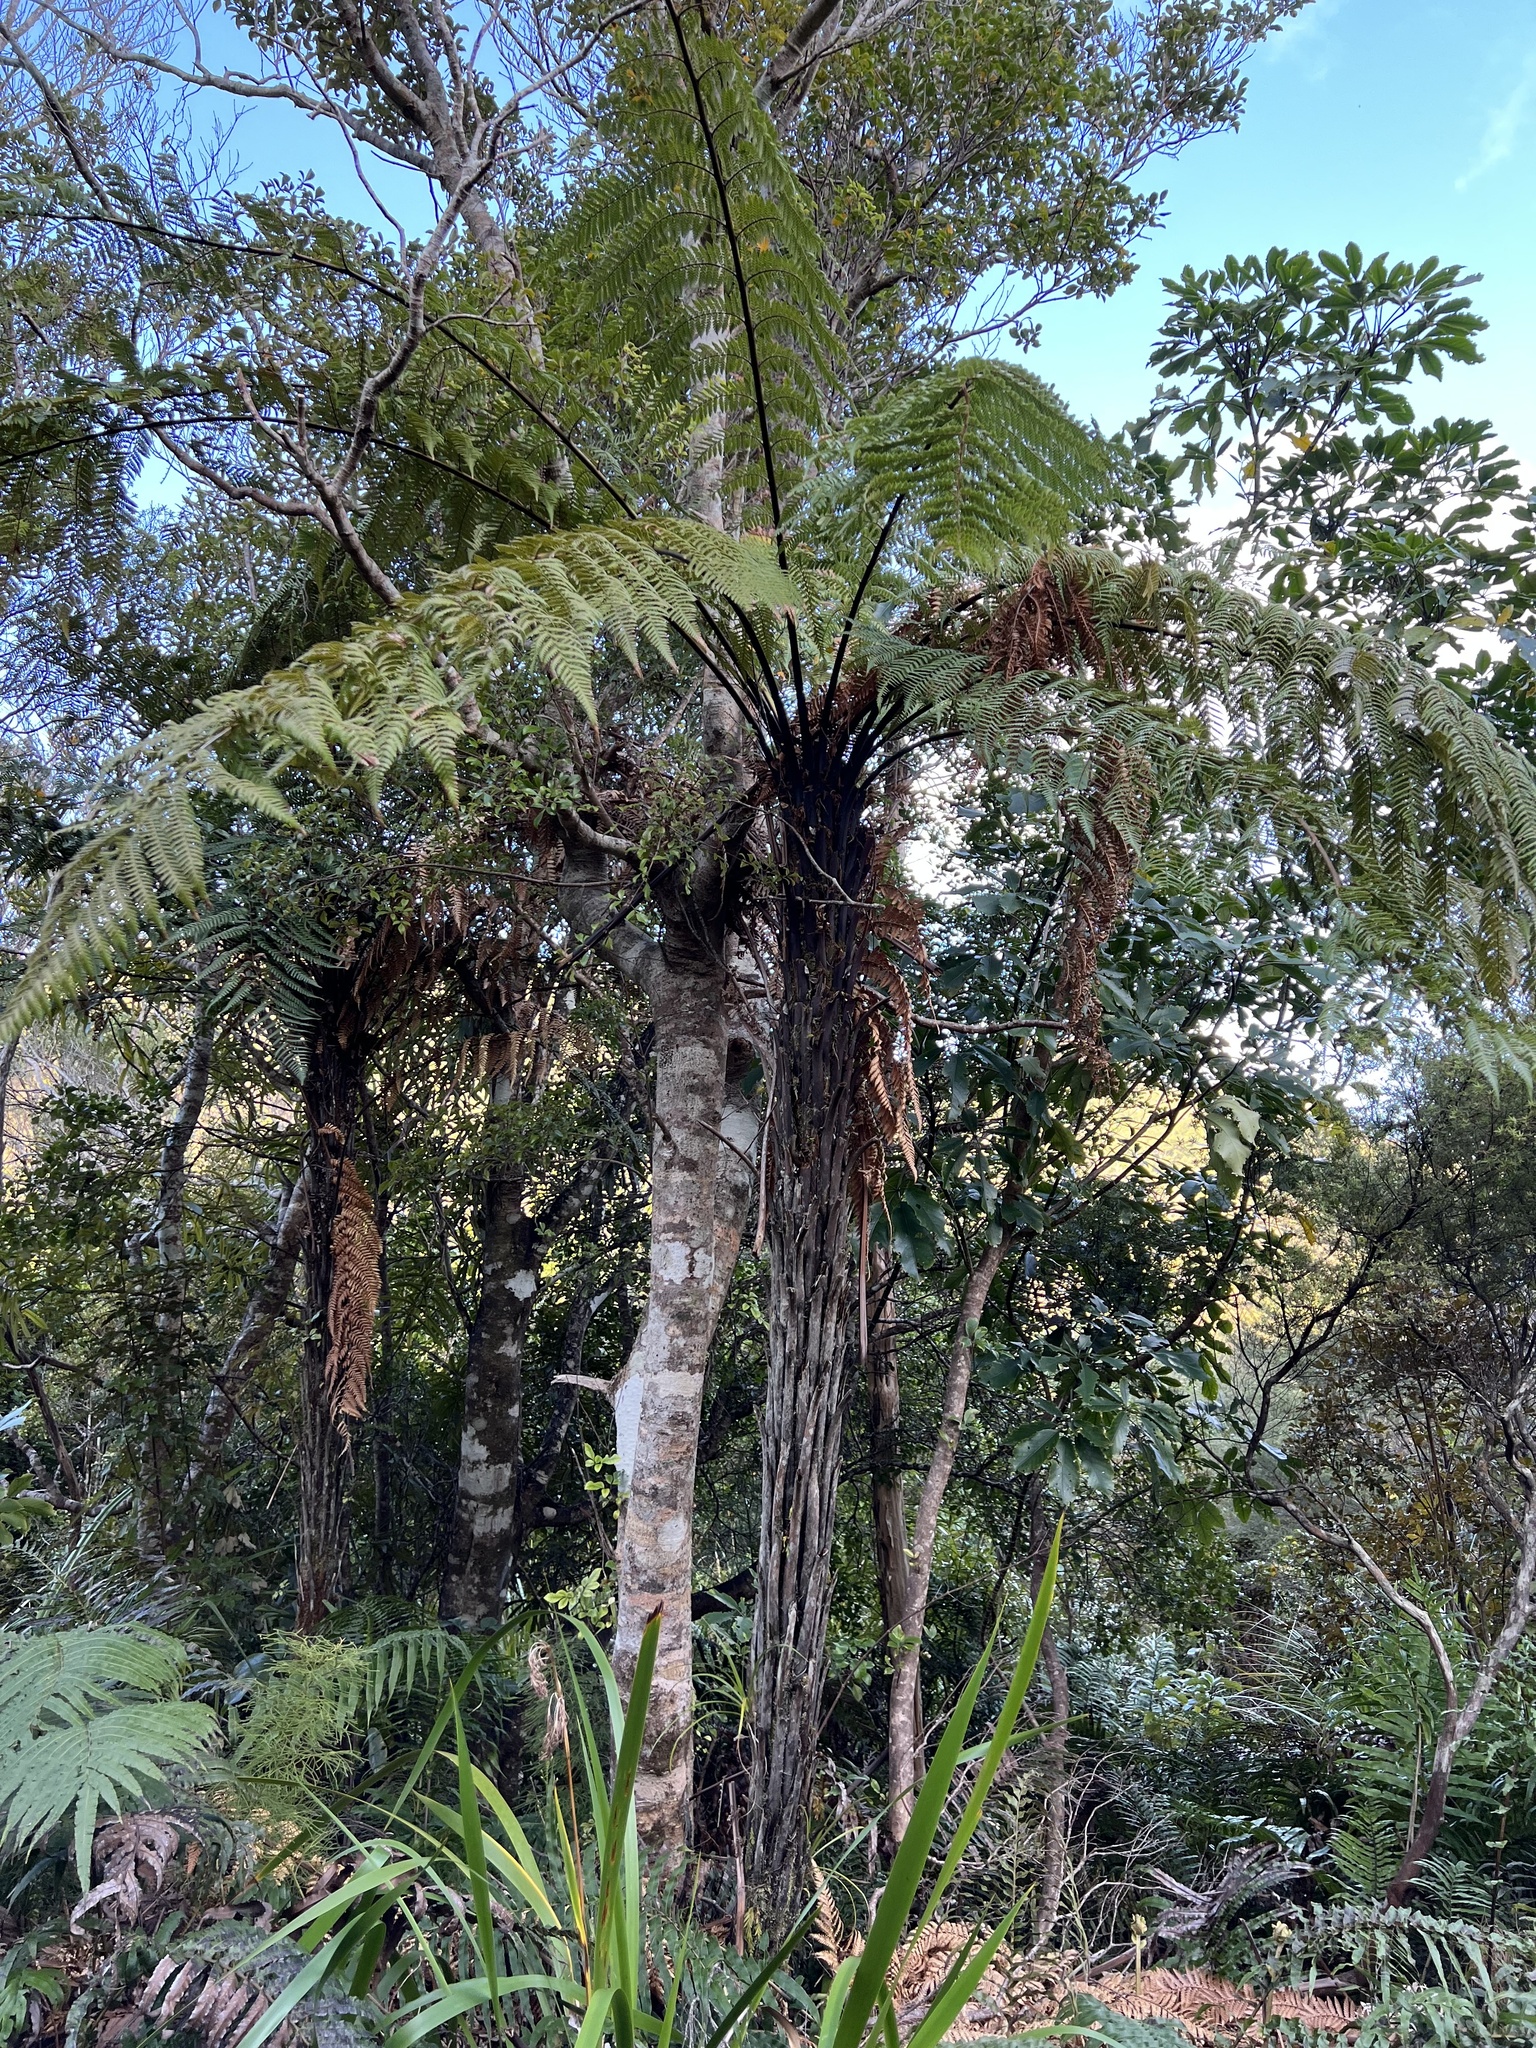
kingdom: Plantae
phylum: Tracheophyta
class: Polypodiopsida
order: Cyatheales
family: Dicksoniaceae
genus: Dicksonia
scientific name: Dicksonia squarrosa
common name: Hard treefern
